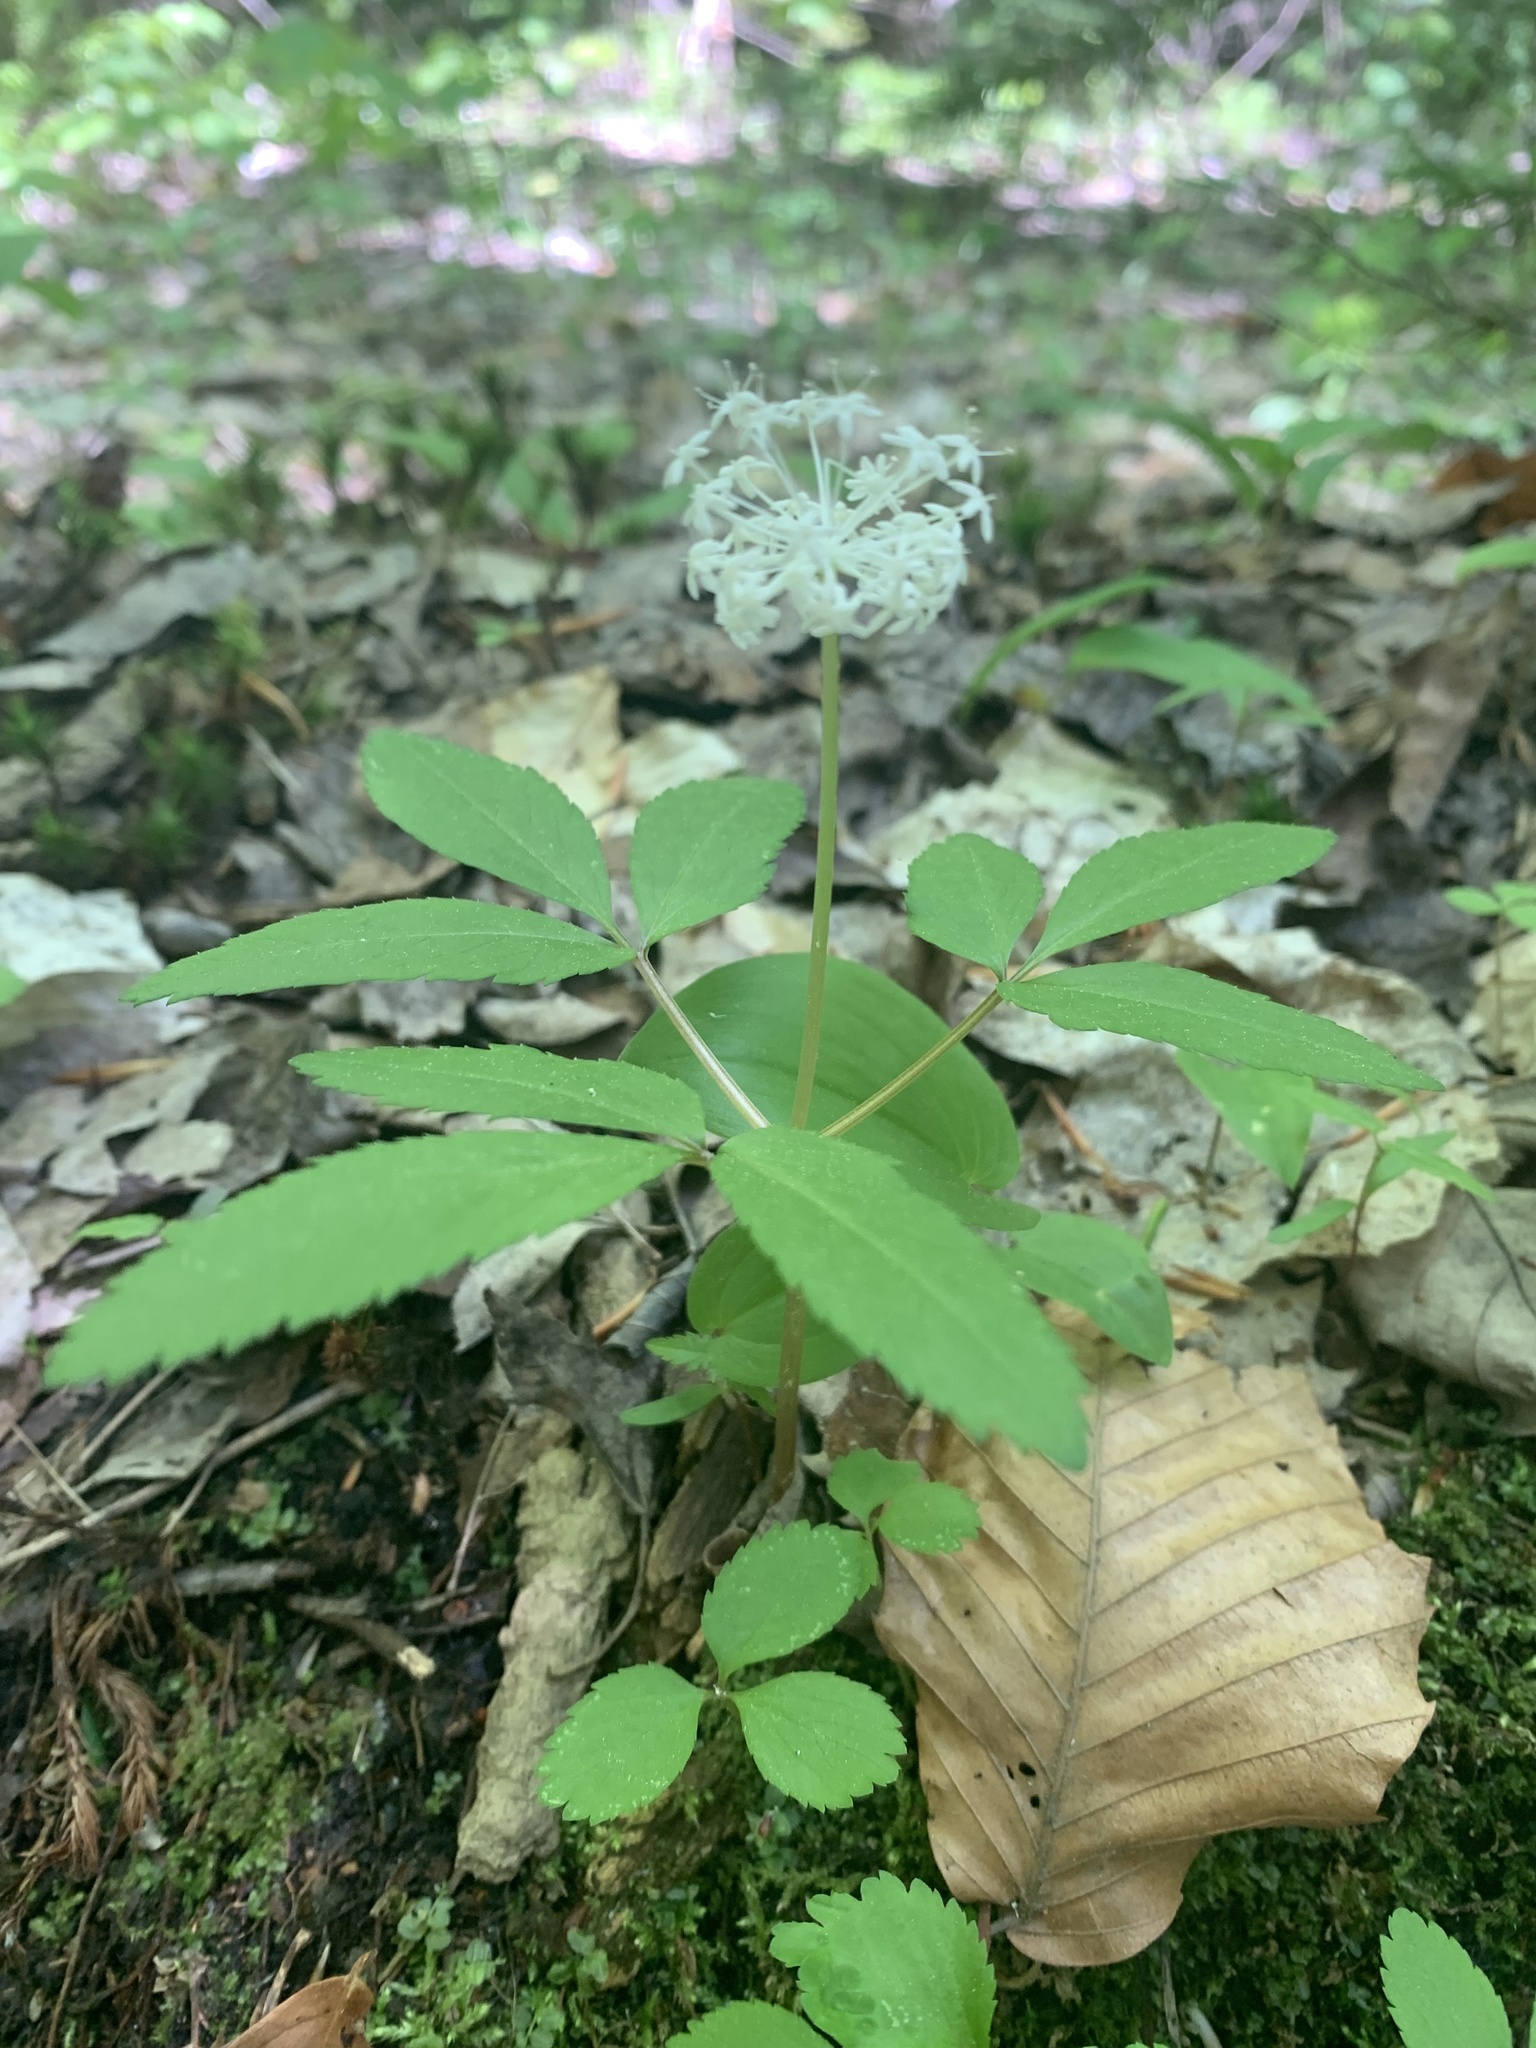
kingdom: Plantae
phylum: Tracheophyta
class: Magnoliopsida
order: Apiales
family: Araliaceae
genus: Panax
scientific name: Panax trifolius
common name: Dwarf ginseng
